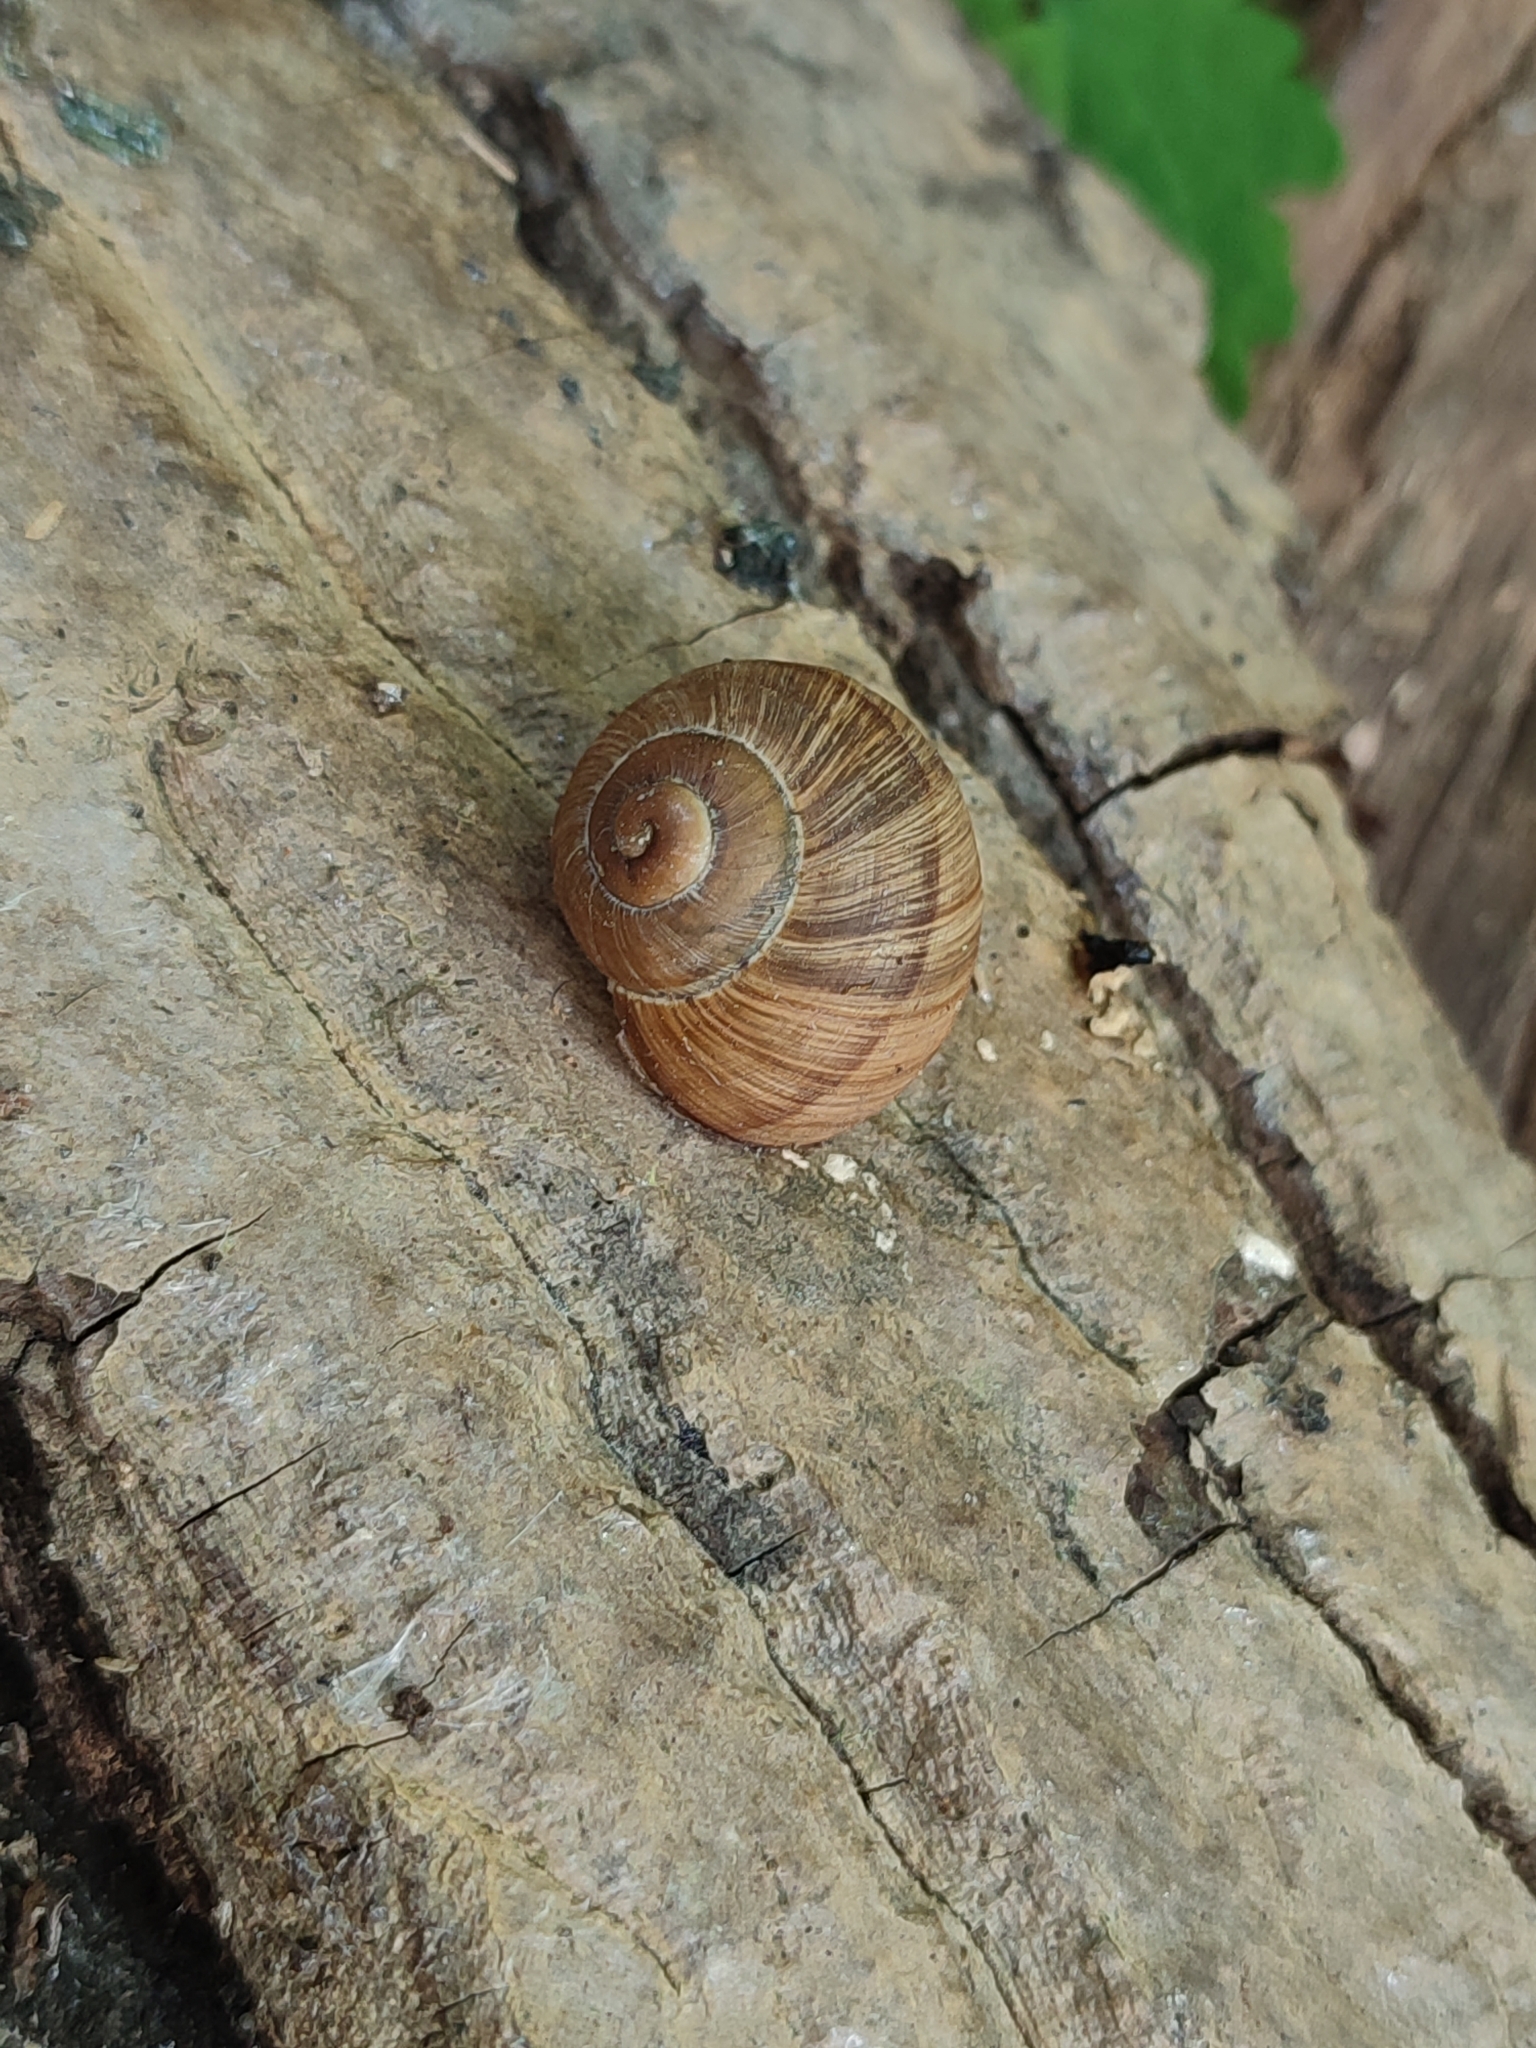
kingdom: Animalia
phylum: Mollusca
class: Gastropoda
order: Stylommatophora
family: Helicidae
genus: Helix
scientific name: Helix pomatia
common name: Roman snail
